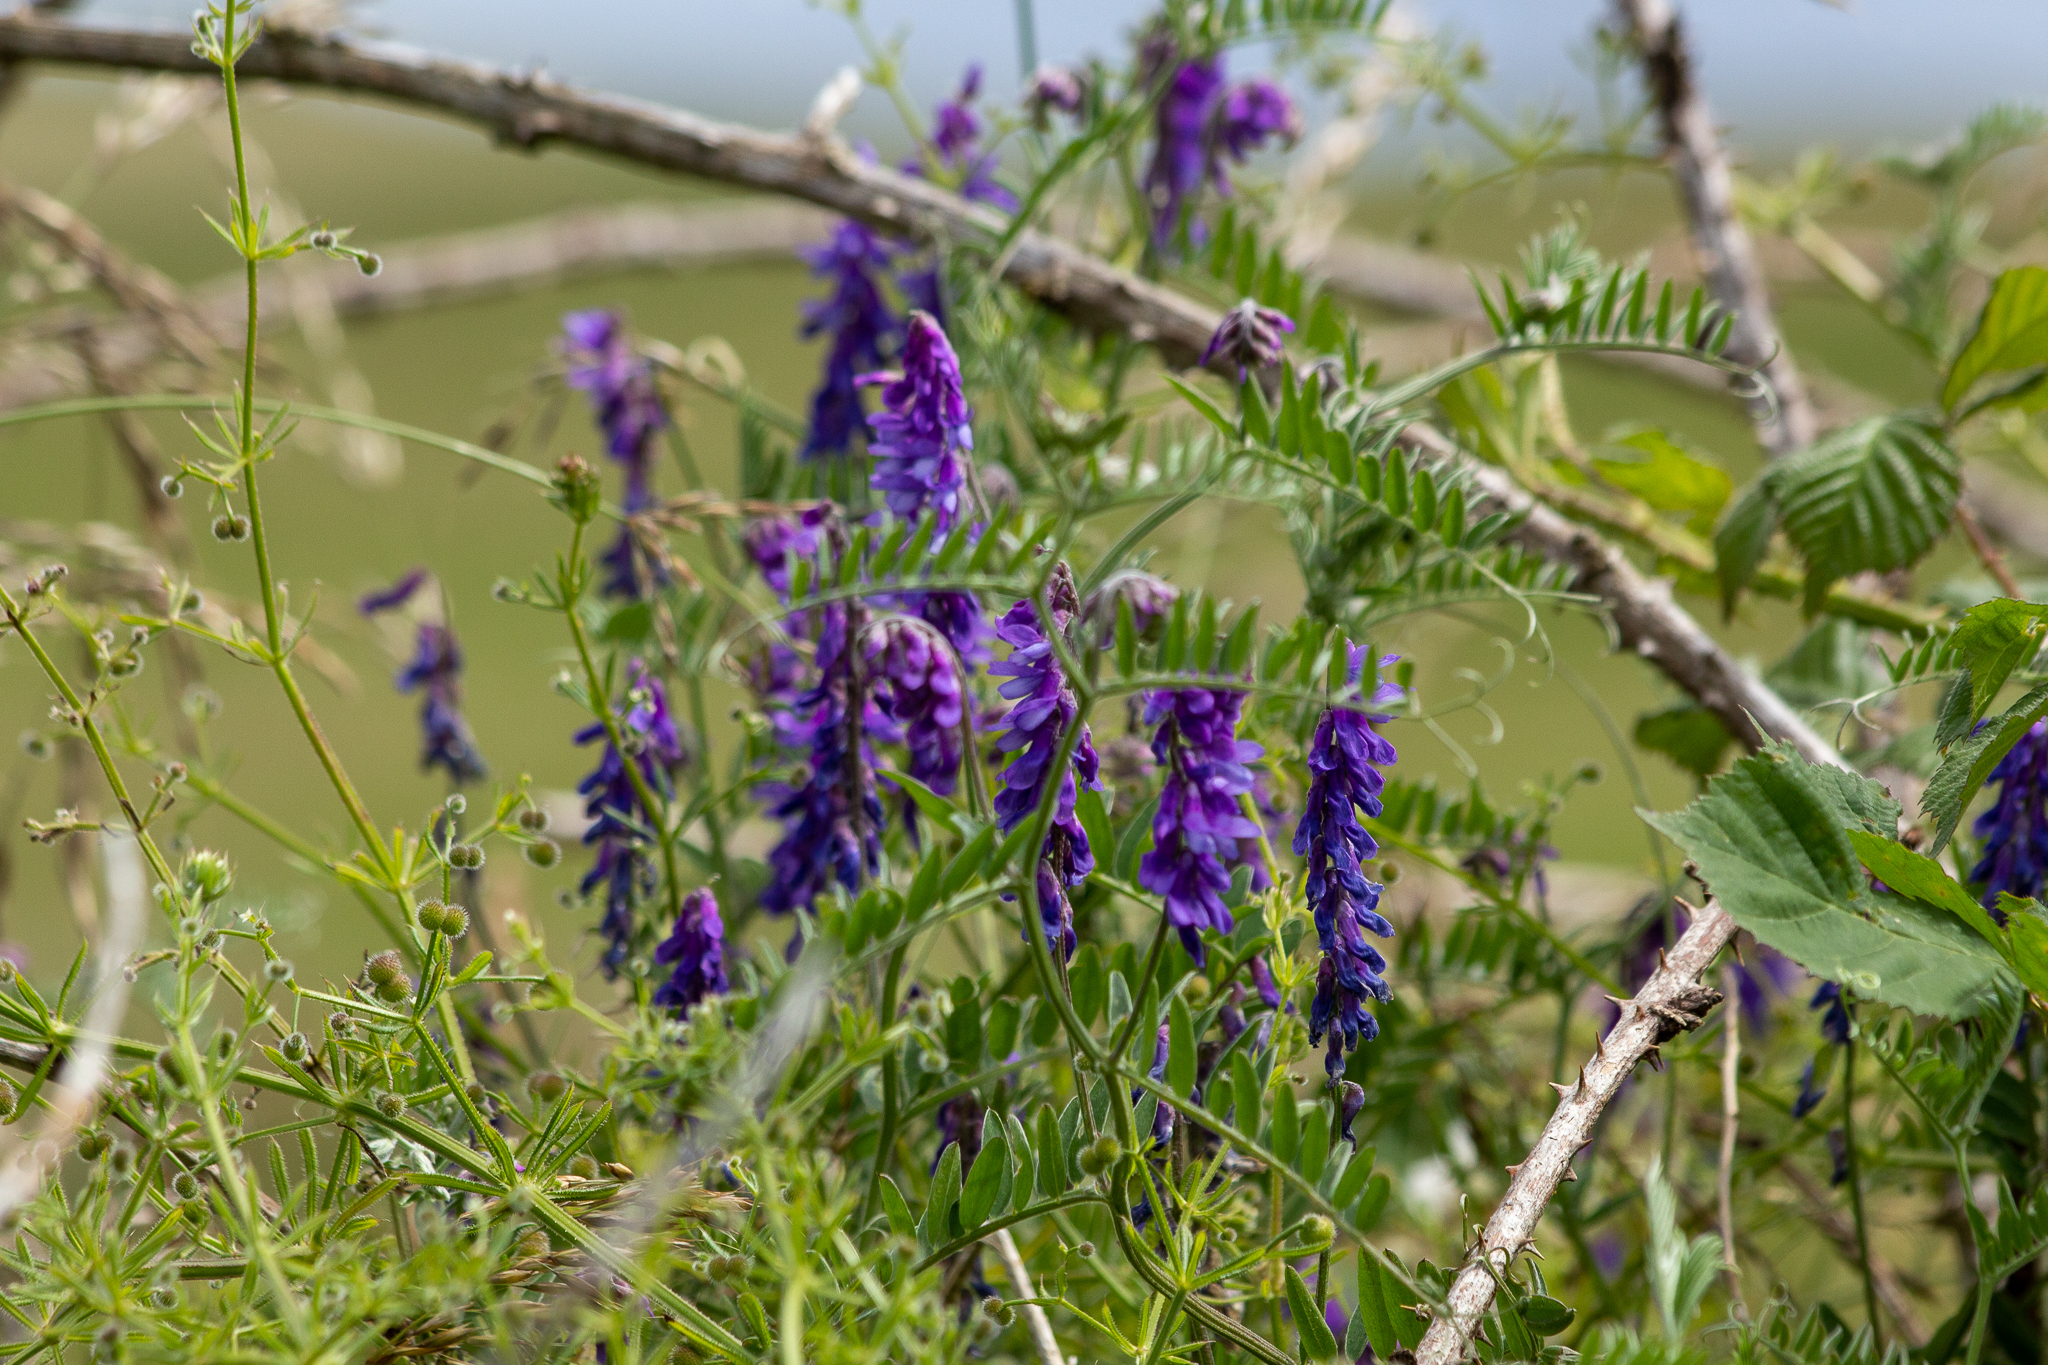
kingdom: Plantae
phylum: Tracheophyta
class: Magnoliopsida
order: Fabales
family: Fabaceae
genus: Vicia
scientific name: Vicia cracca
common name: Bird vetch
